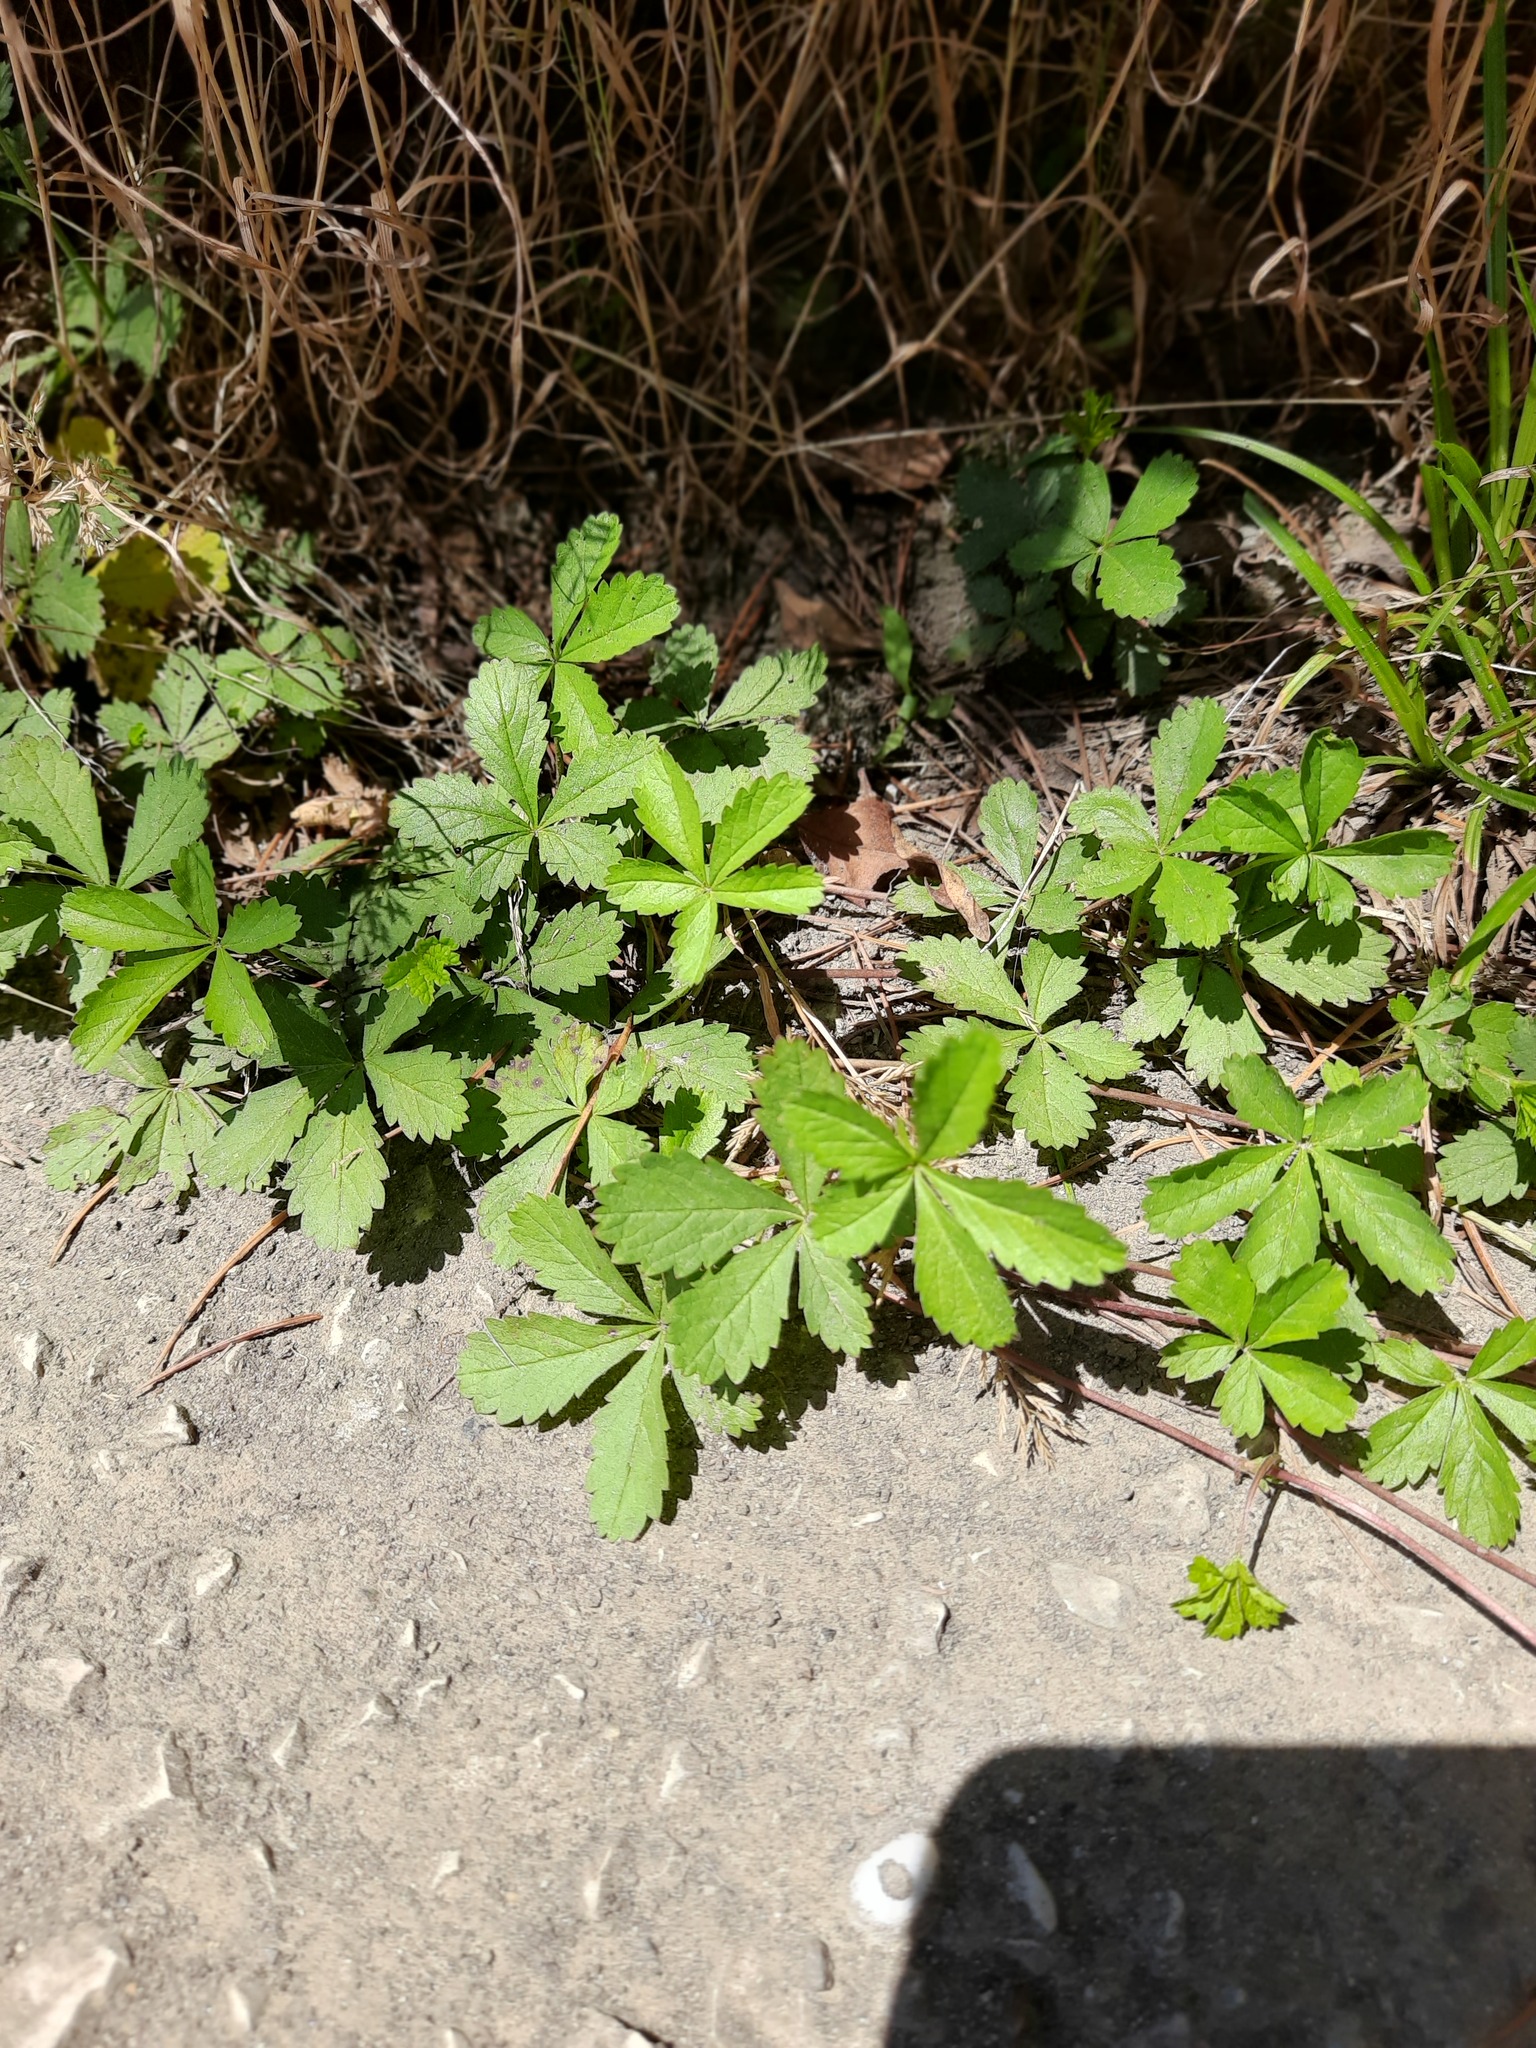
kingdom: Plantae
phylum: Tracheophyta
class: Magnoliopsida
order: Rosales
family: Rosaceae
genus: Potentilla
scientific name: Potentilla reptans
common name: Creeping cinquefoil
